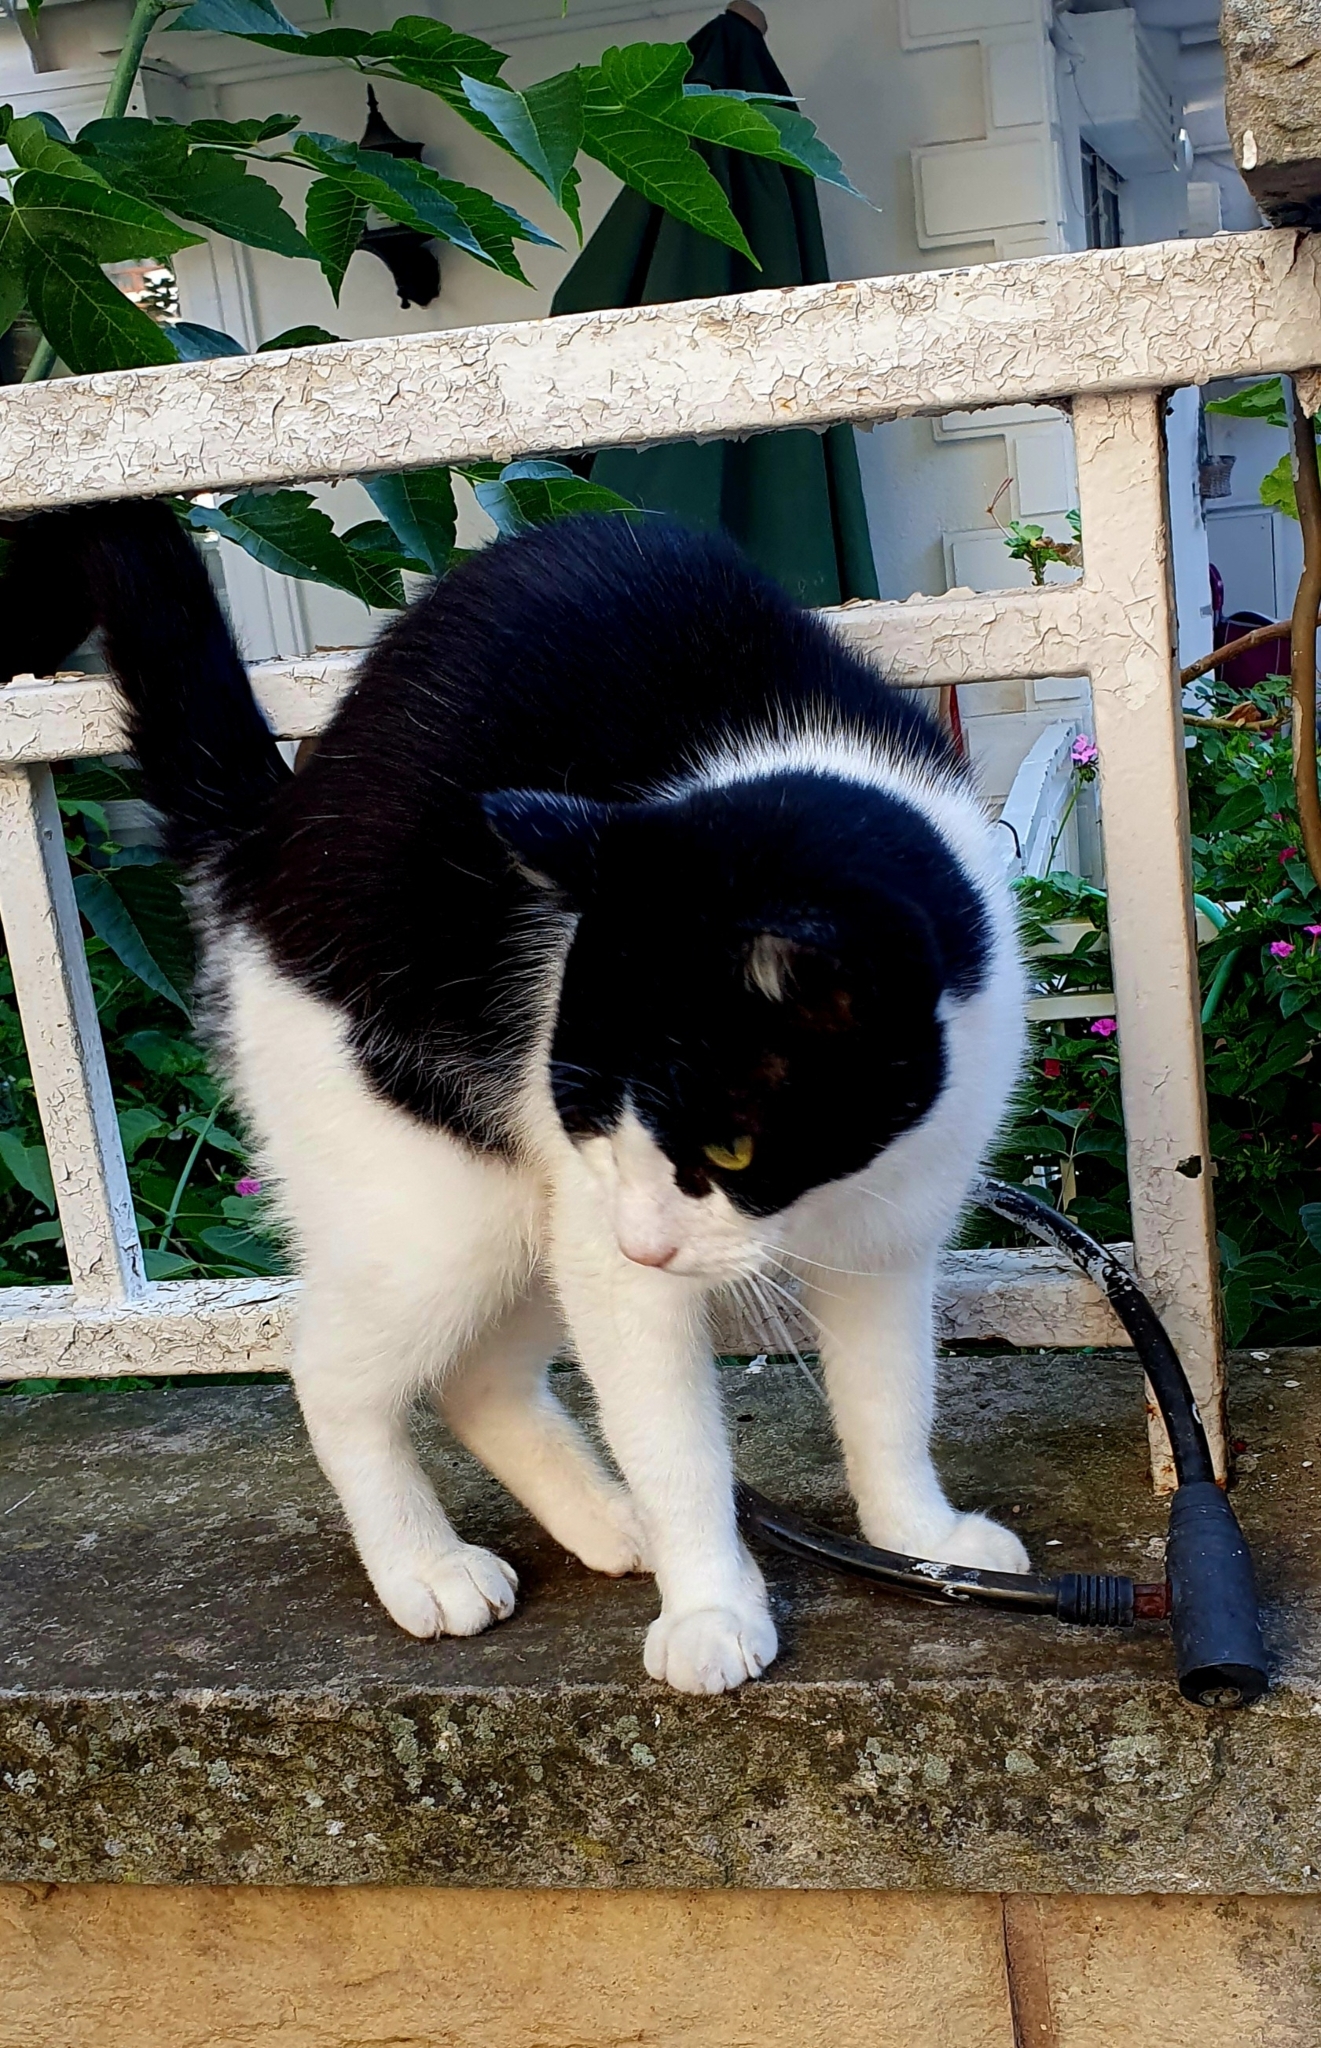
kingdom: Animalia
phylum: Chordata
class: Mammalia
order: Carnivora
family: Felidae
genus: Felis
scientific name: Felis catus
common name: Domestic cat
